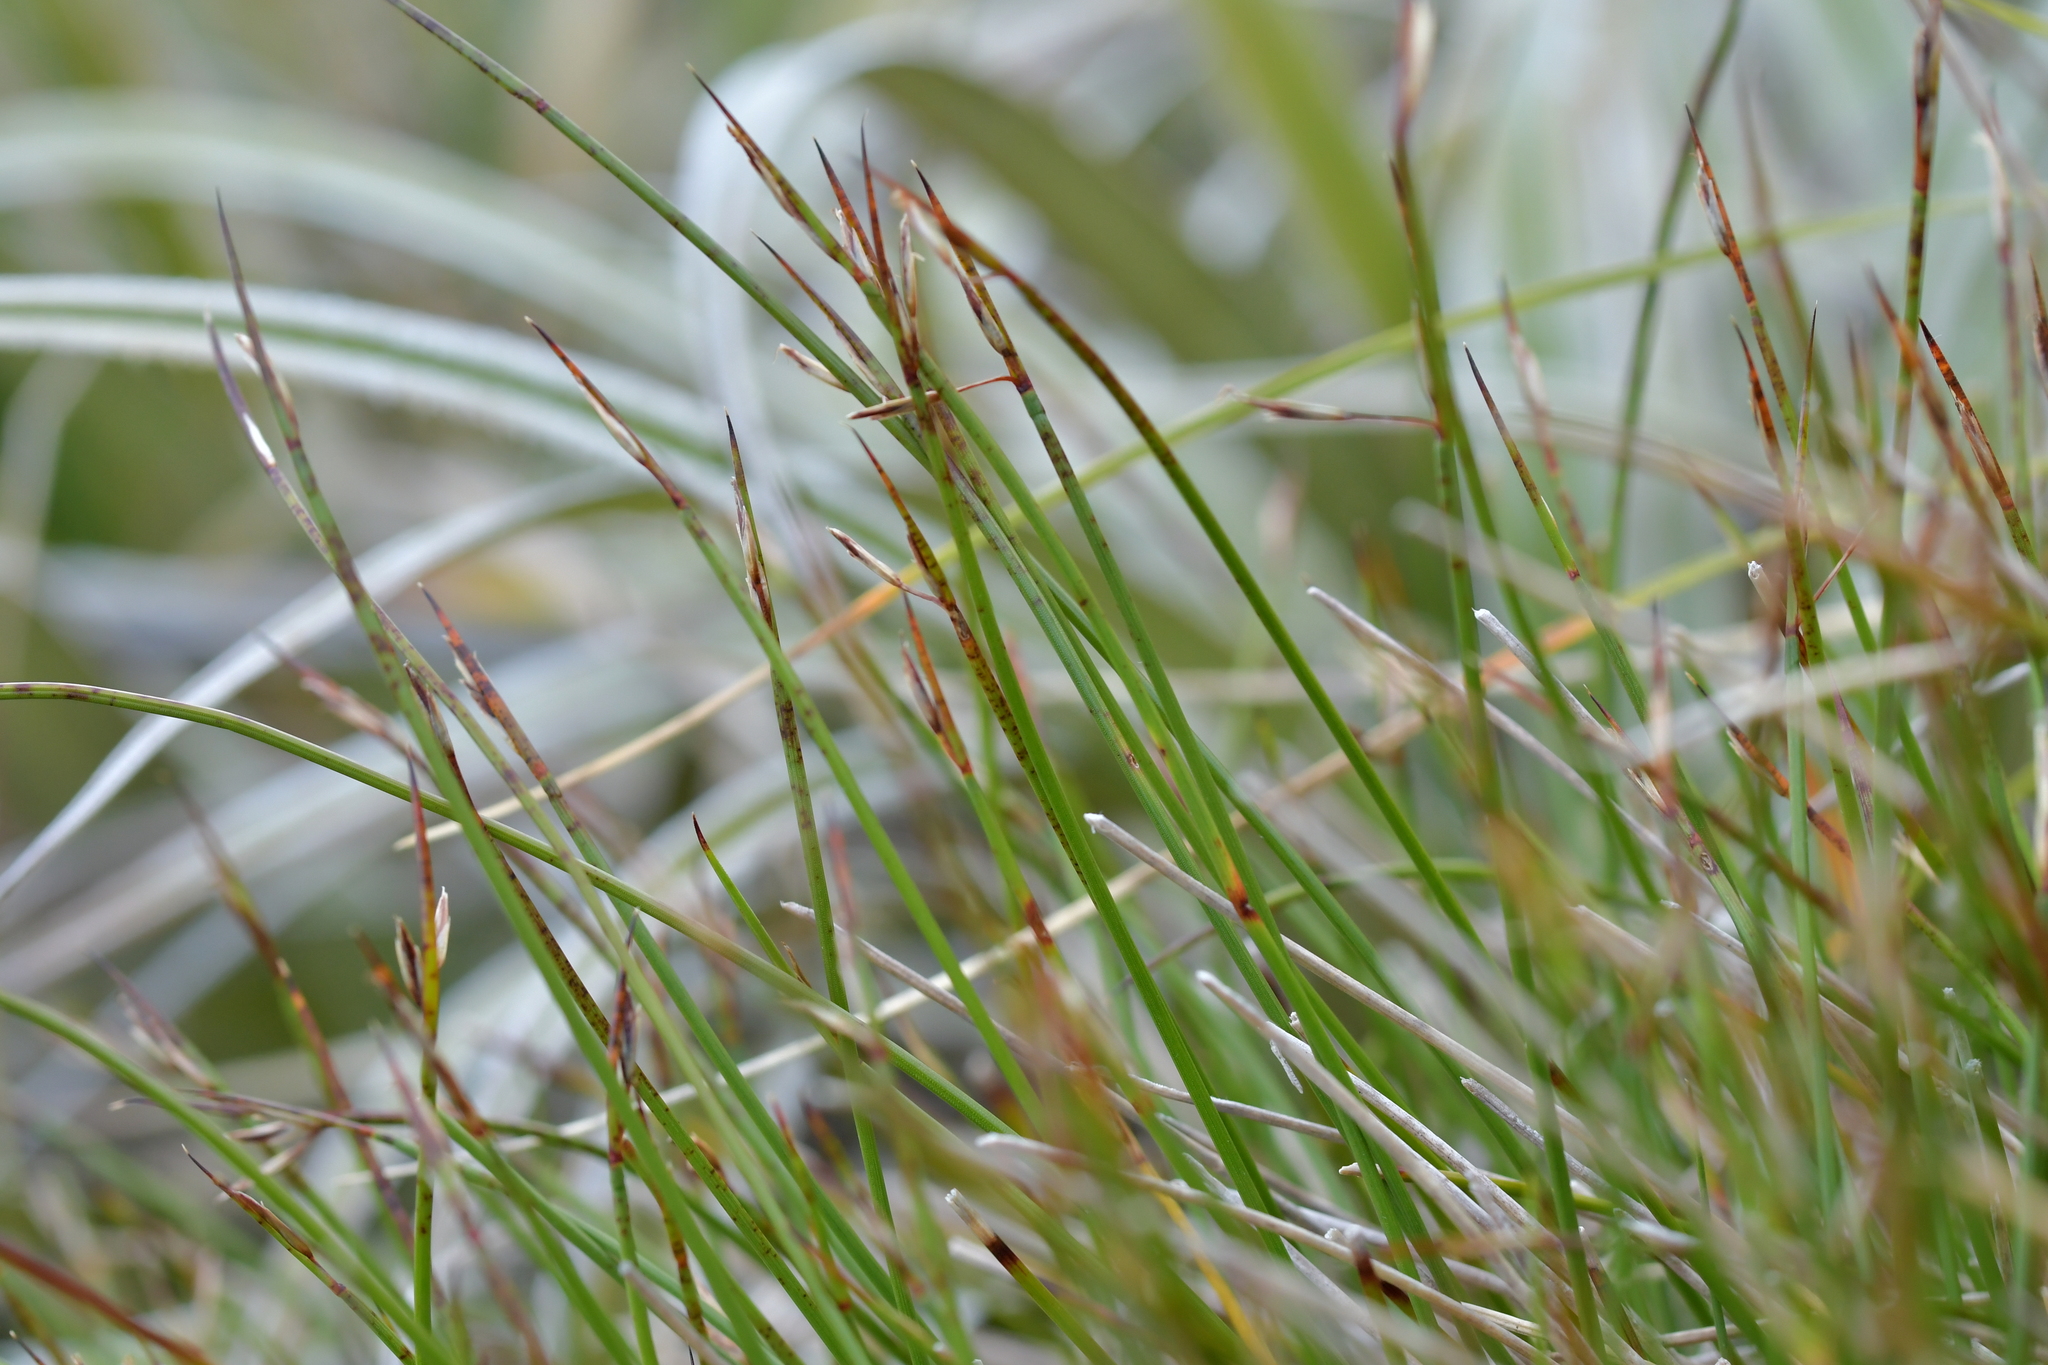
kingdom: Plantae
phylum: Tracheophyta
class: Liliopsida
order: Poales
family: Cyperaceae
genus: Schoenus
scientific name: Schoenus pauciflorus
